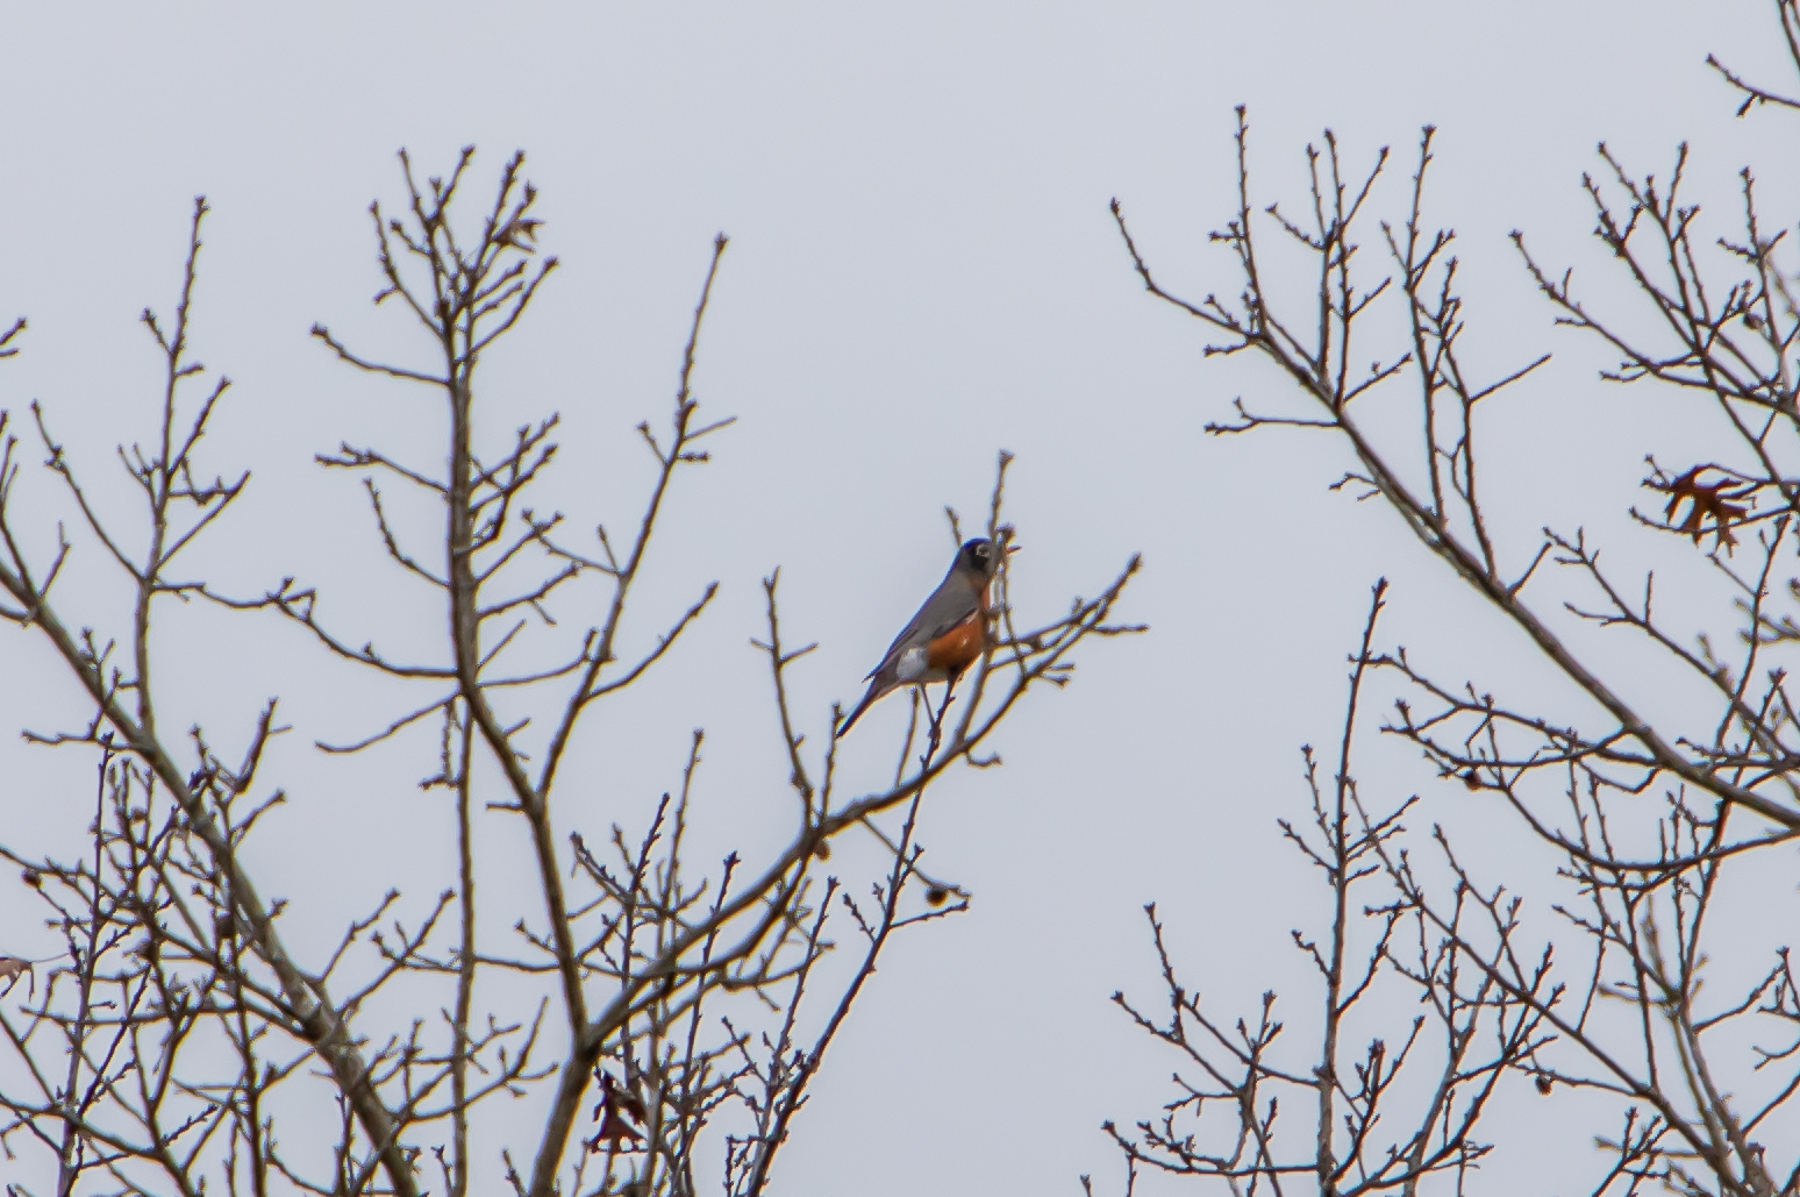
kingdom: Animalia
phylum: Chordata
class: Aves
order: Passeriformes
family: Turdidae
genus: Turdus
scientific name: Turdus migratorius
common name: American robin
